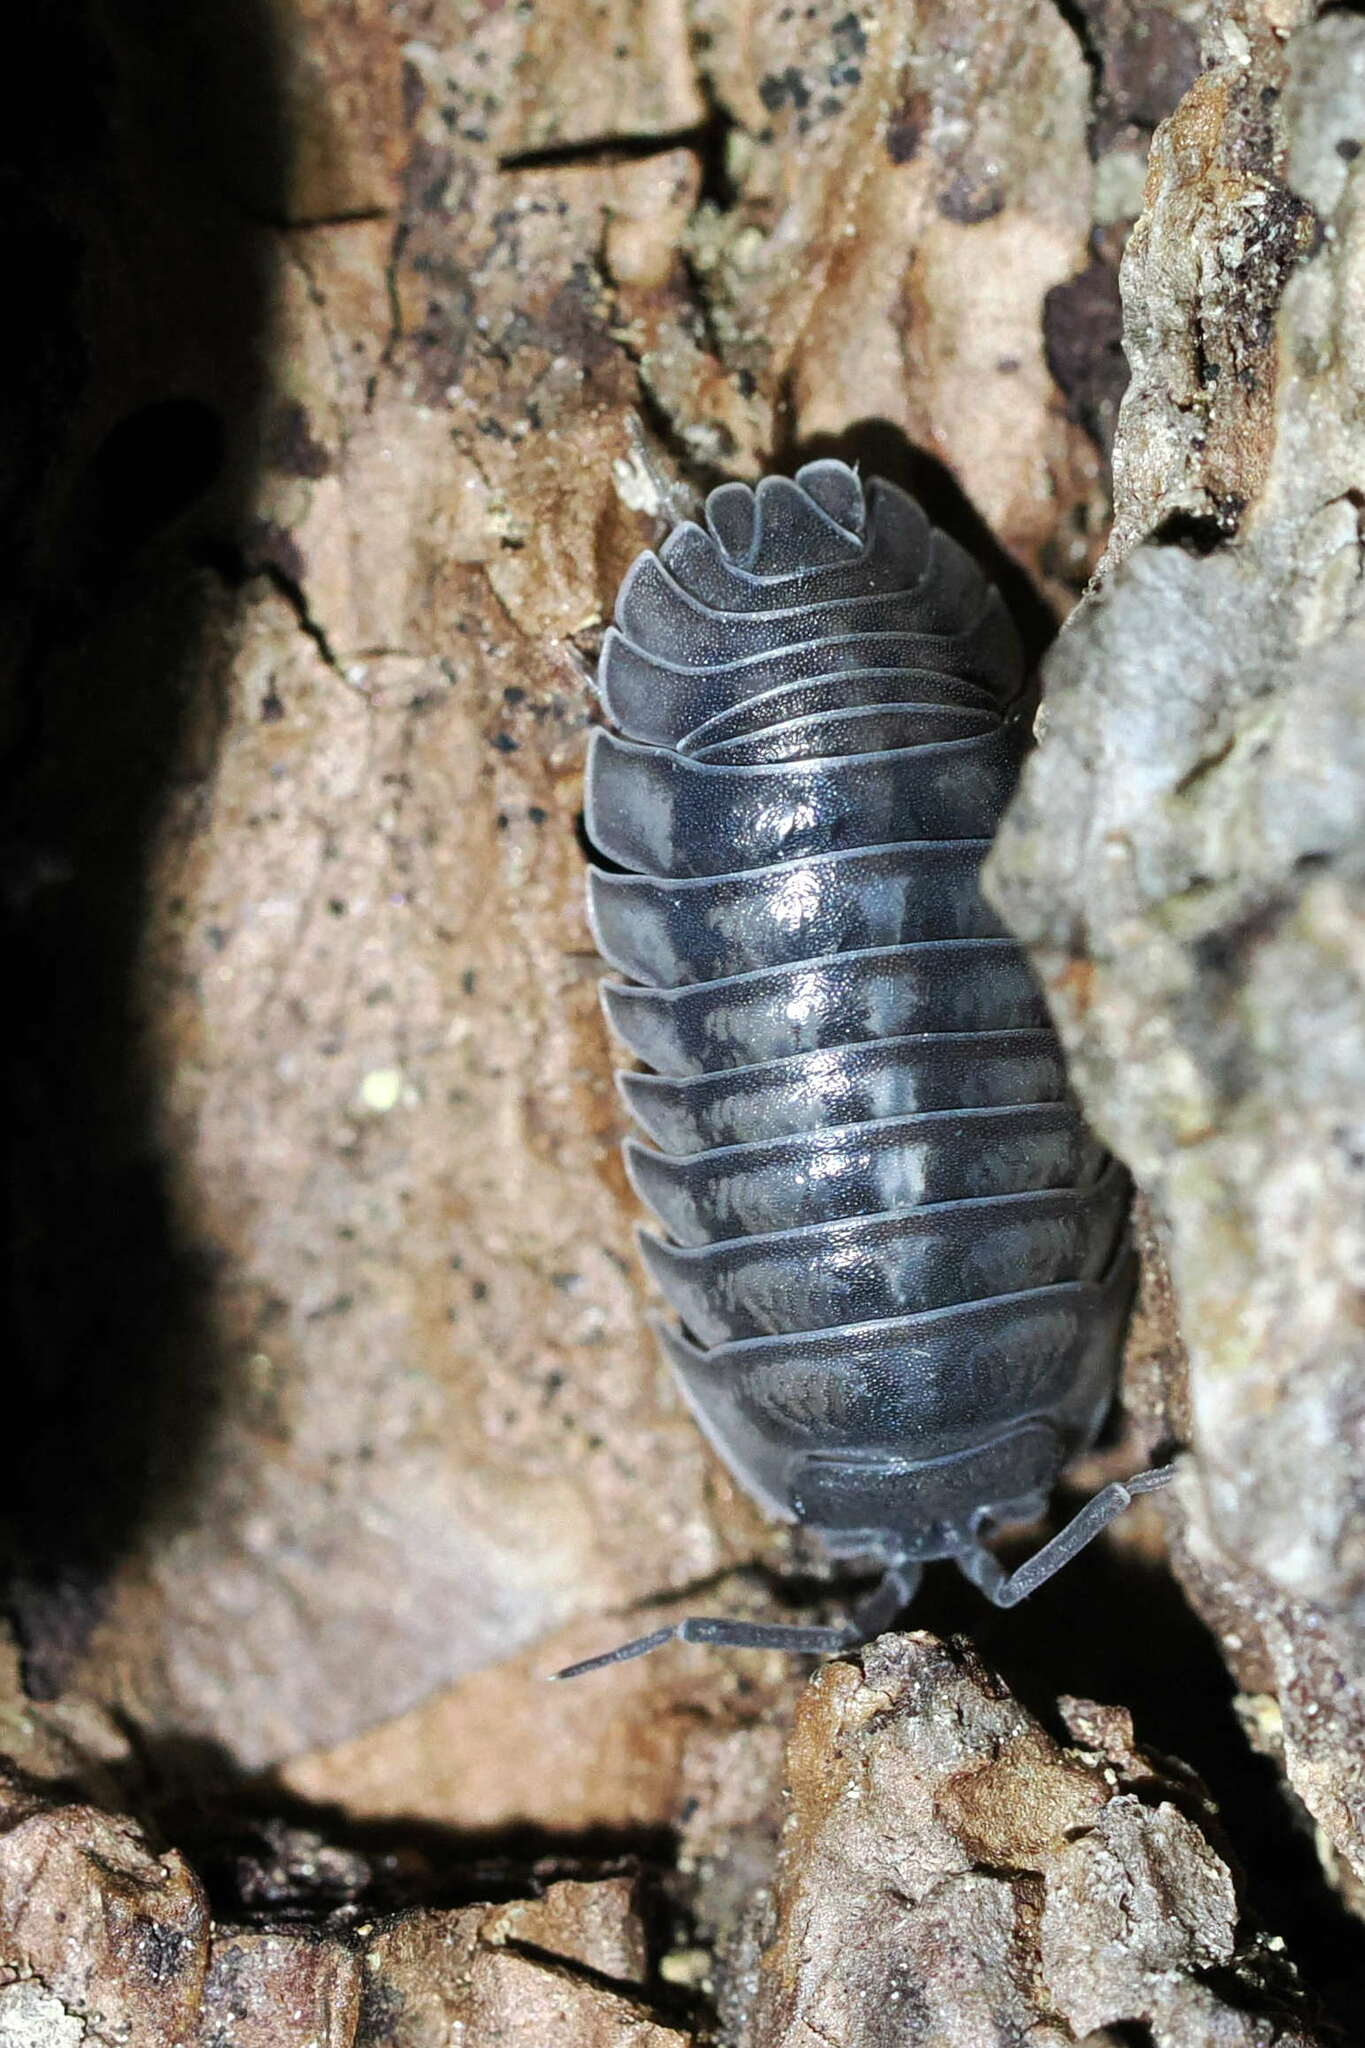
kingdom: Animalia
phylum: Arthropoda
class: Malacostraca
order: Isopoda
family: Armadillidiidae
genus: Armadillidium
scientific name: Armadillidium nasatum
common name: Isopod
